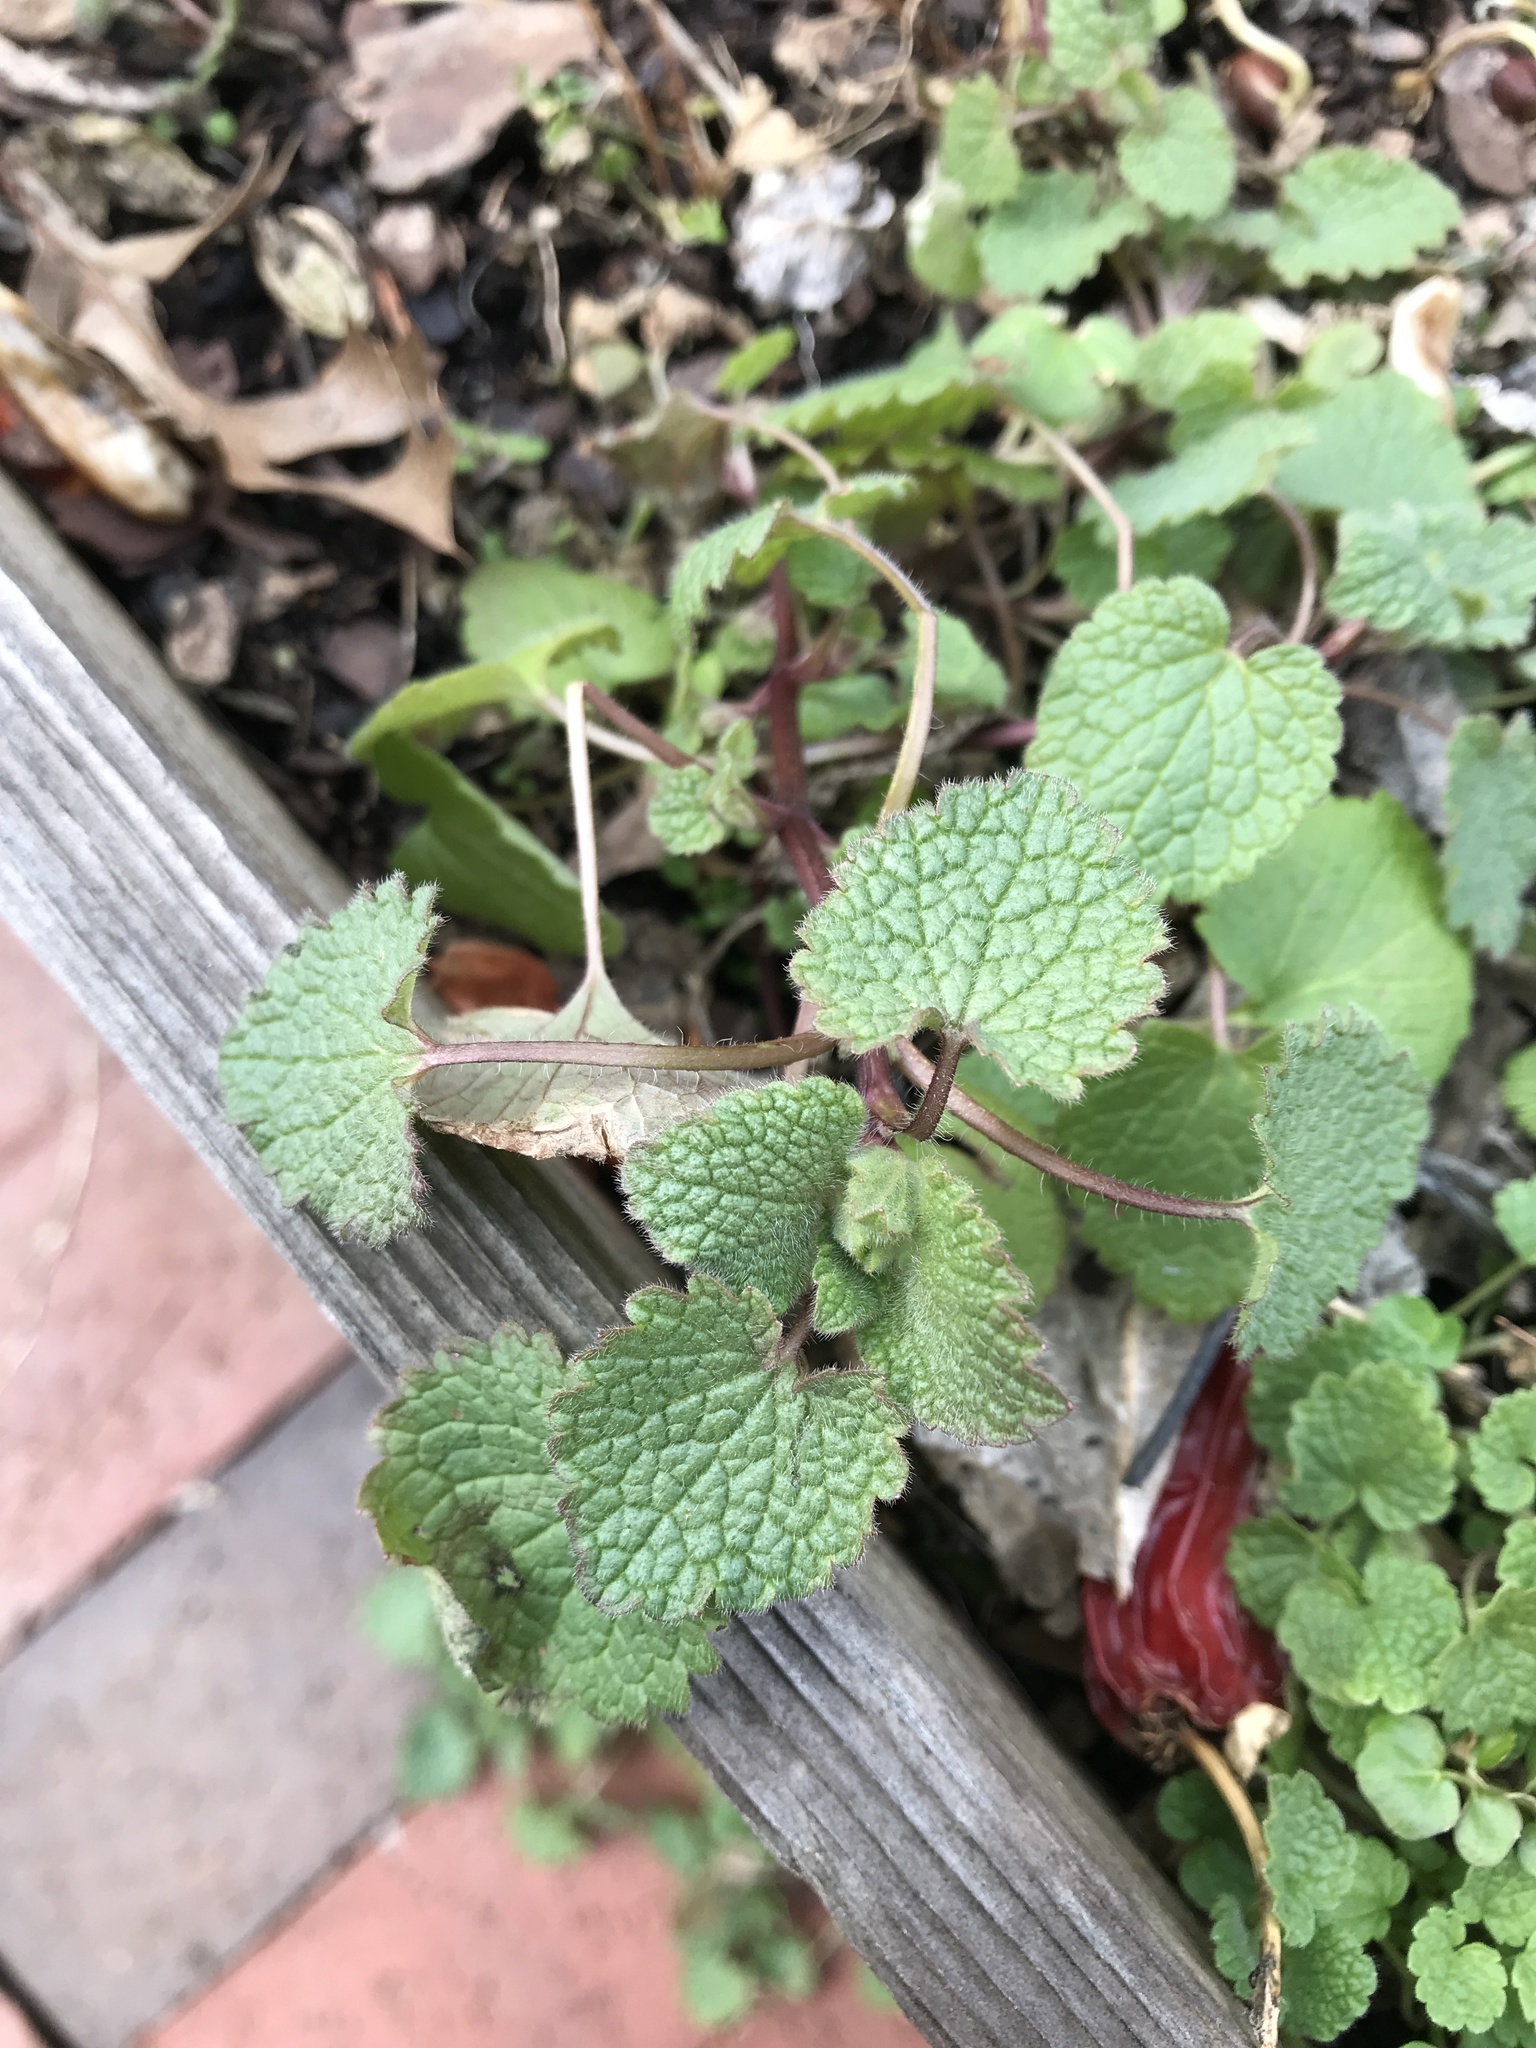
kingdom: Plantae
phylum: Tracheophyta
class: Magnoliopsida
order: Lamiales
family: Lamiaceae
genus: Lamium
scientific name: Lamium purpureum
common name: Red dead-nettle
